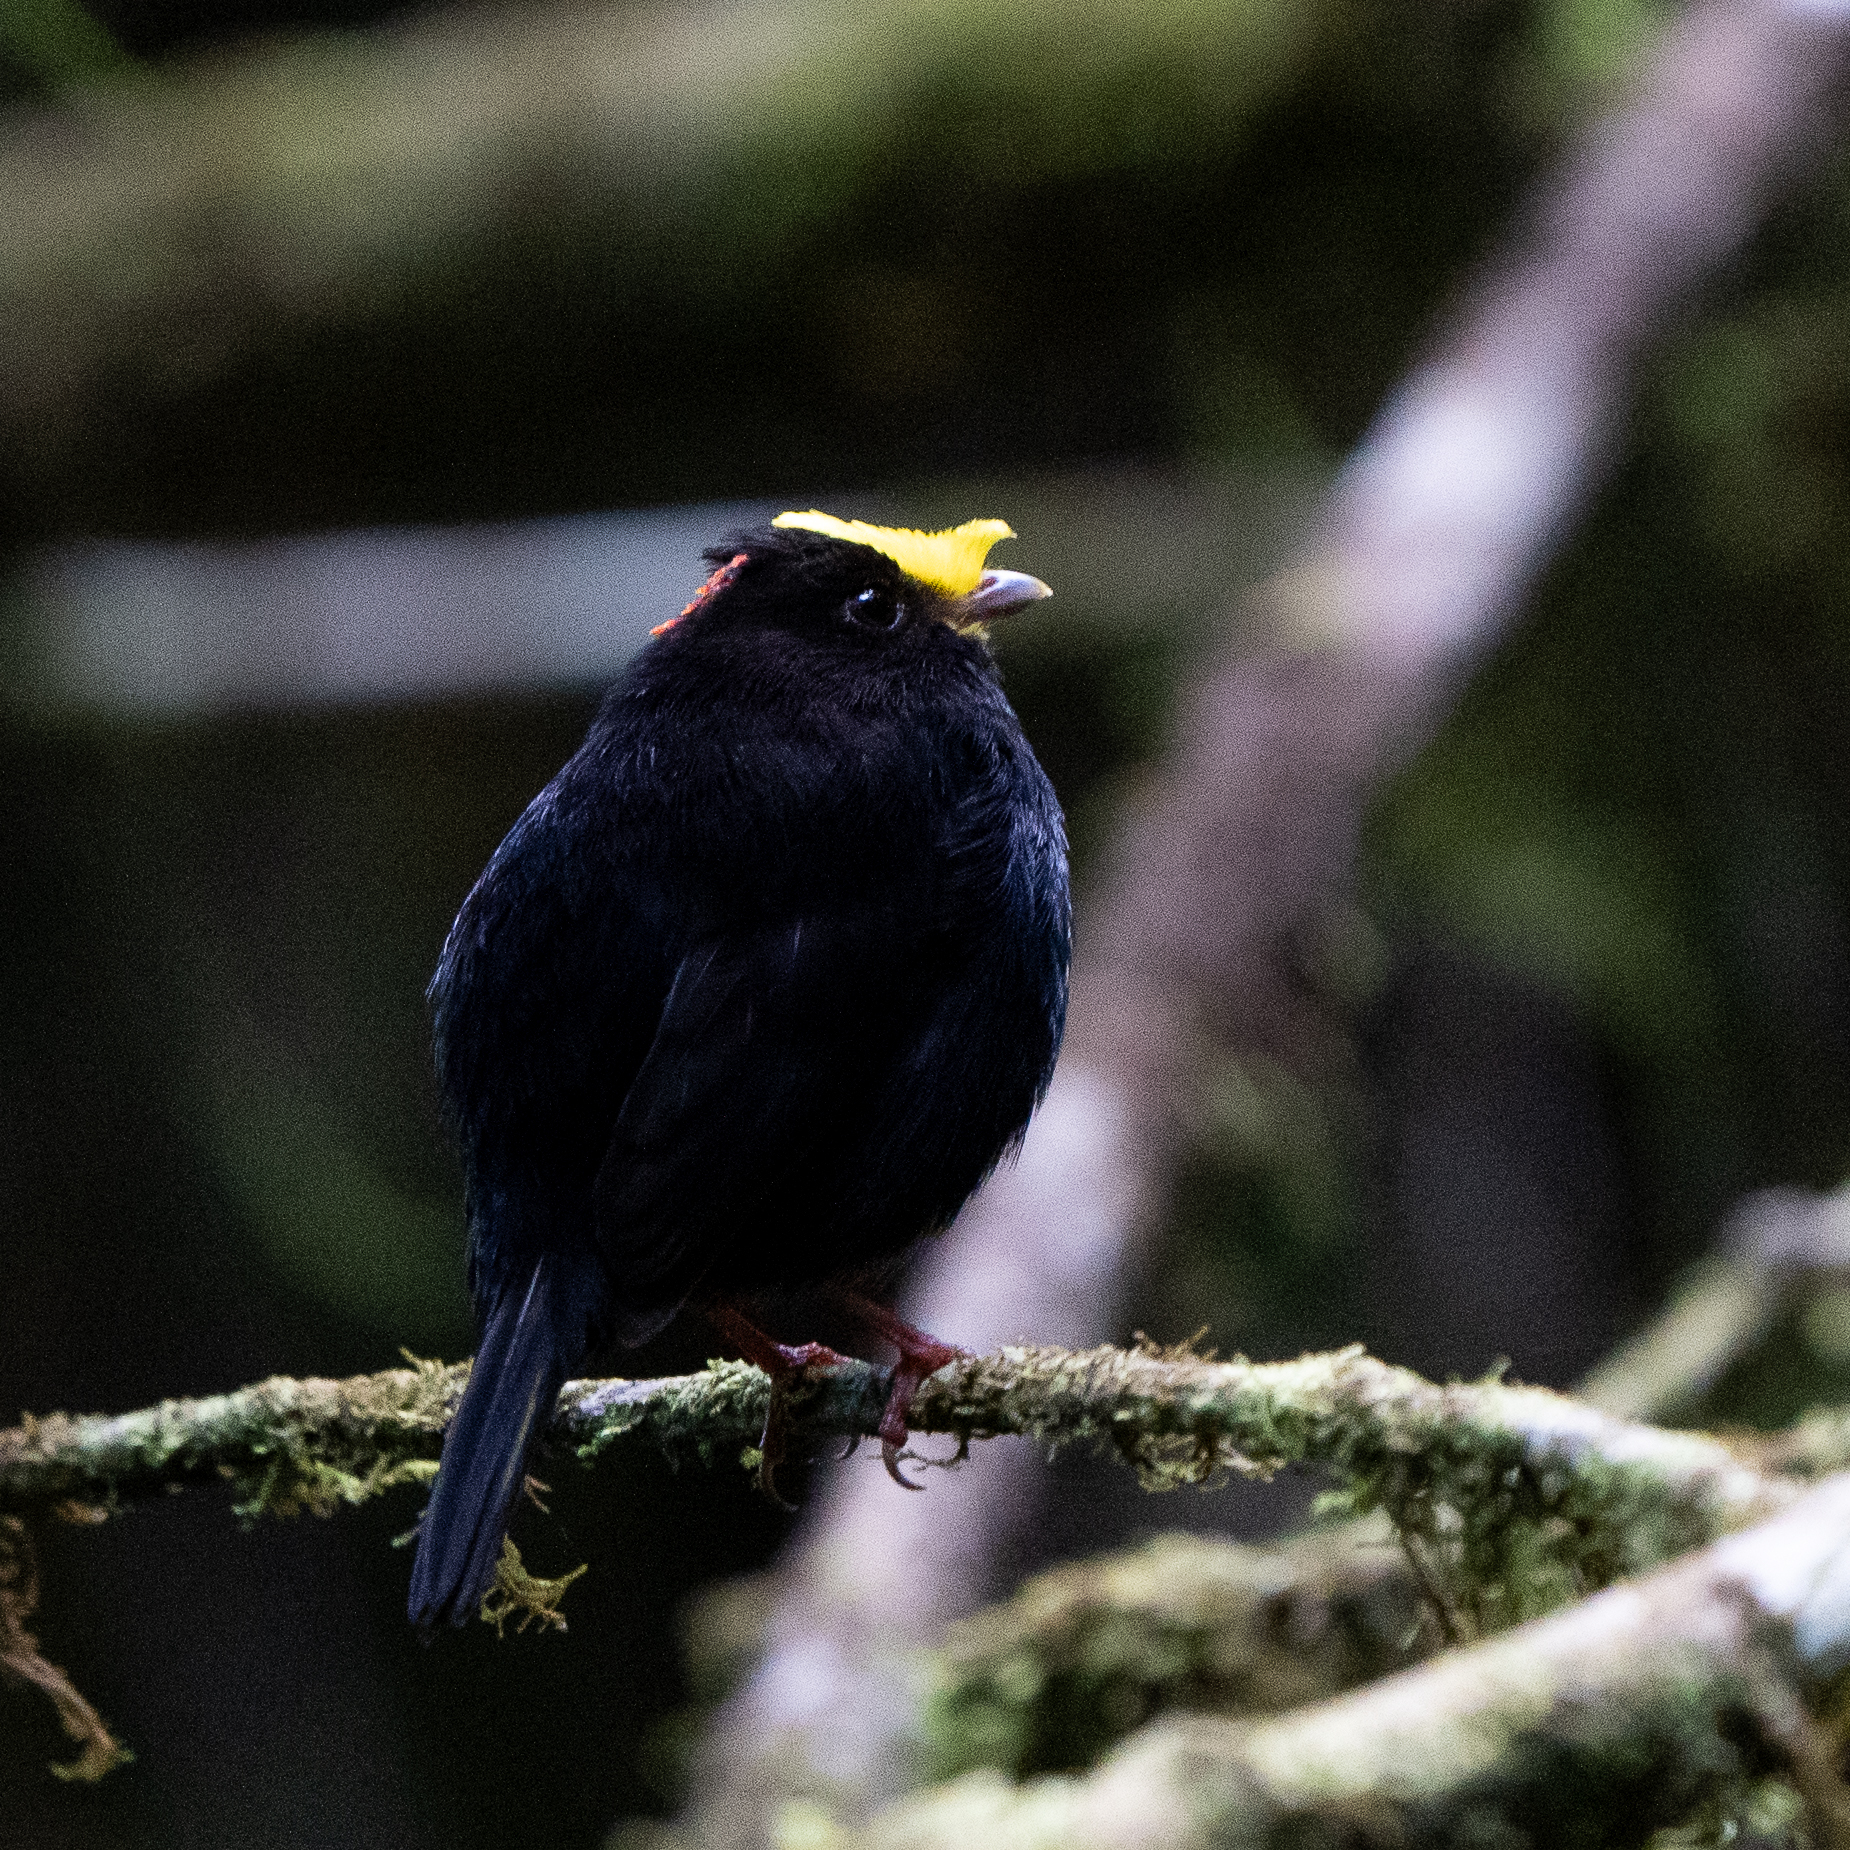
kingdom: Animalia
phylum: Chordata
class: Aves
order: Passeriformes
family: Pipridae
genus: Masius
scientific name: Masius chrysopterus
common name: Golden-winged manakin
